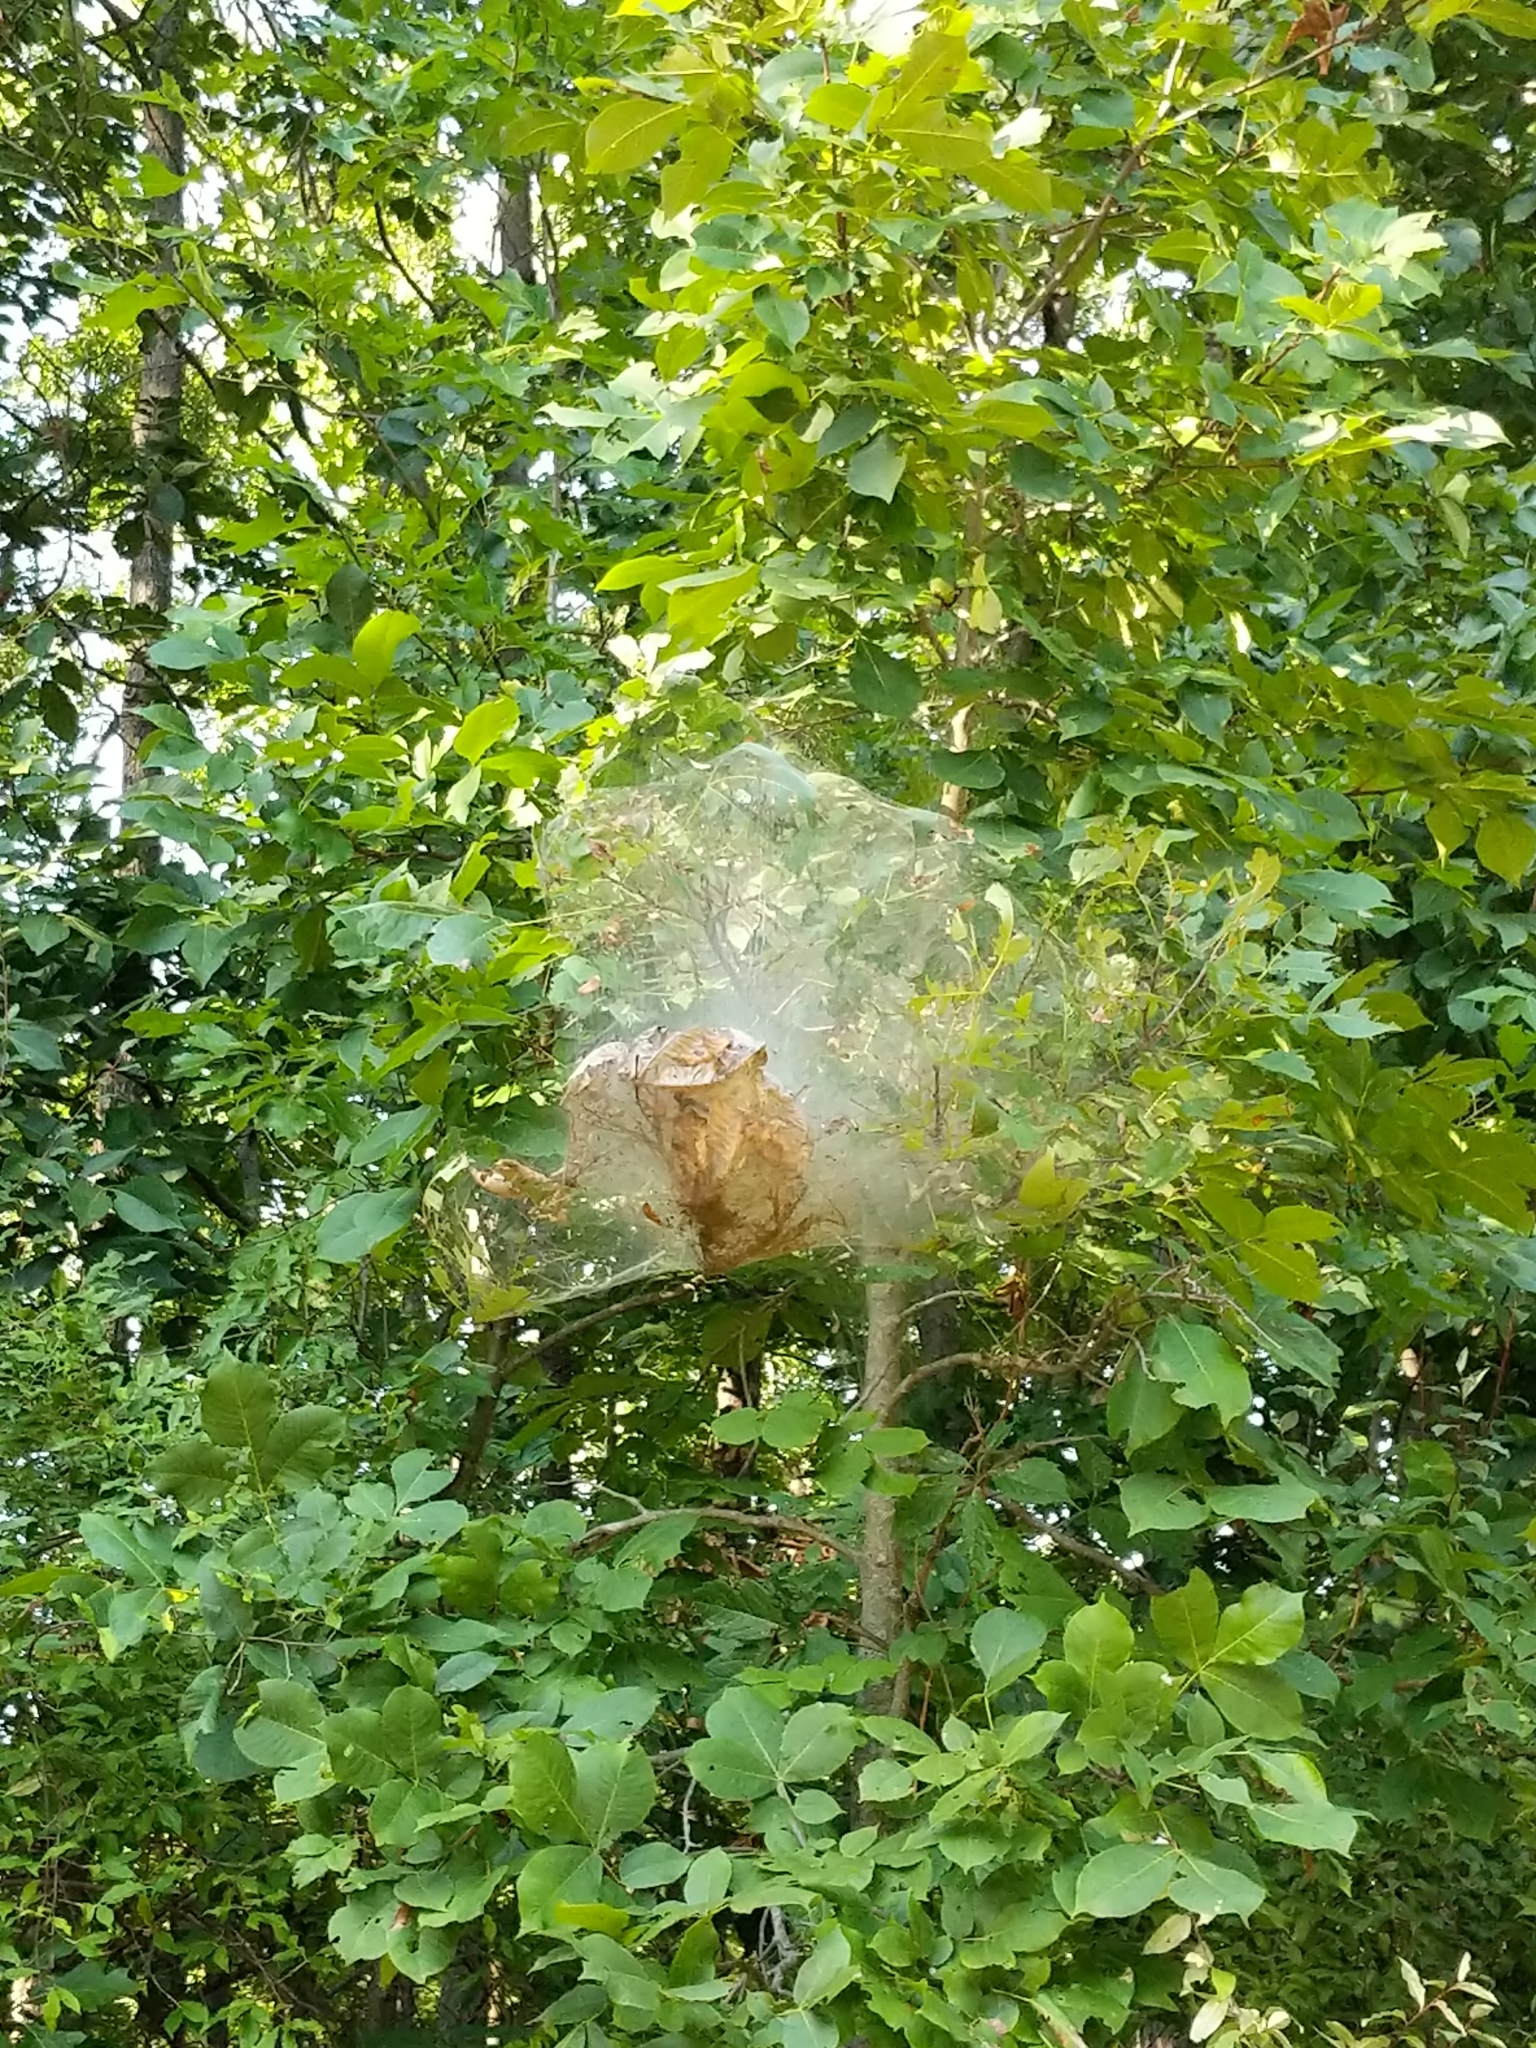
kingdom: Animalia
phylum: Arthropoda
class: Insecta
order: Lepidoptera
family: Erebidae
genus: Hyphantria
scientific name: Hyphantria cunea
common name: American white moth
